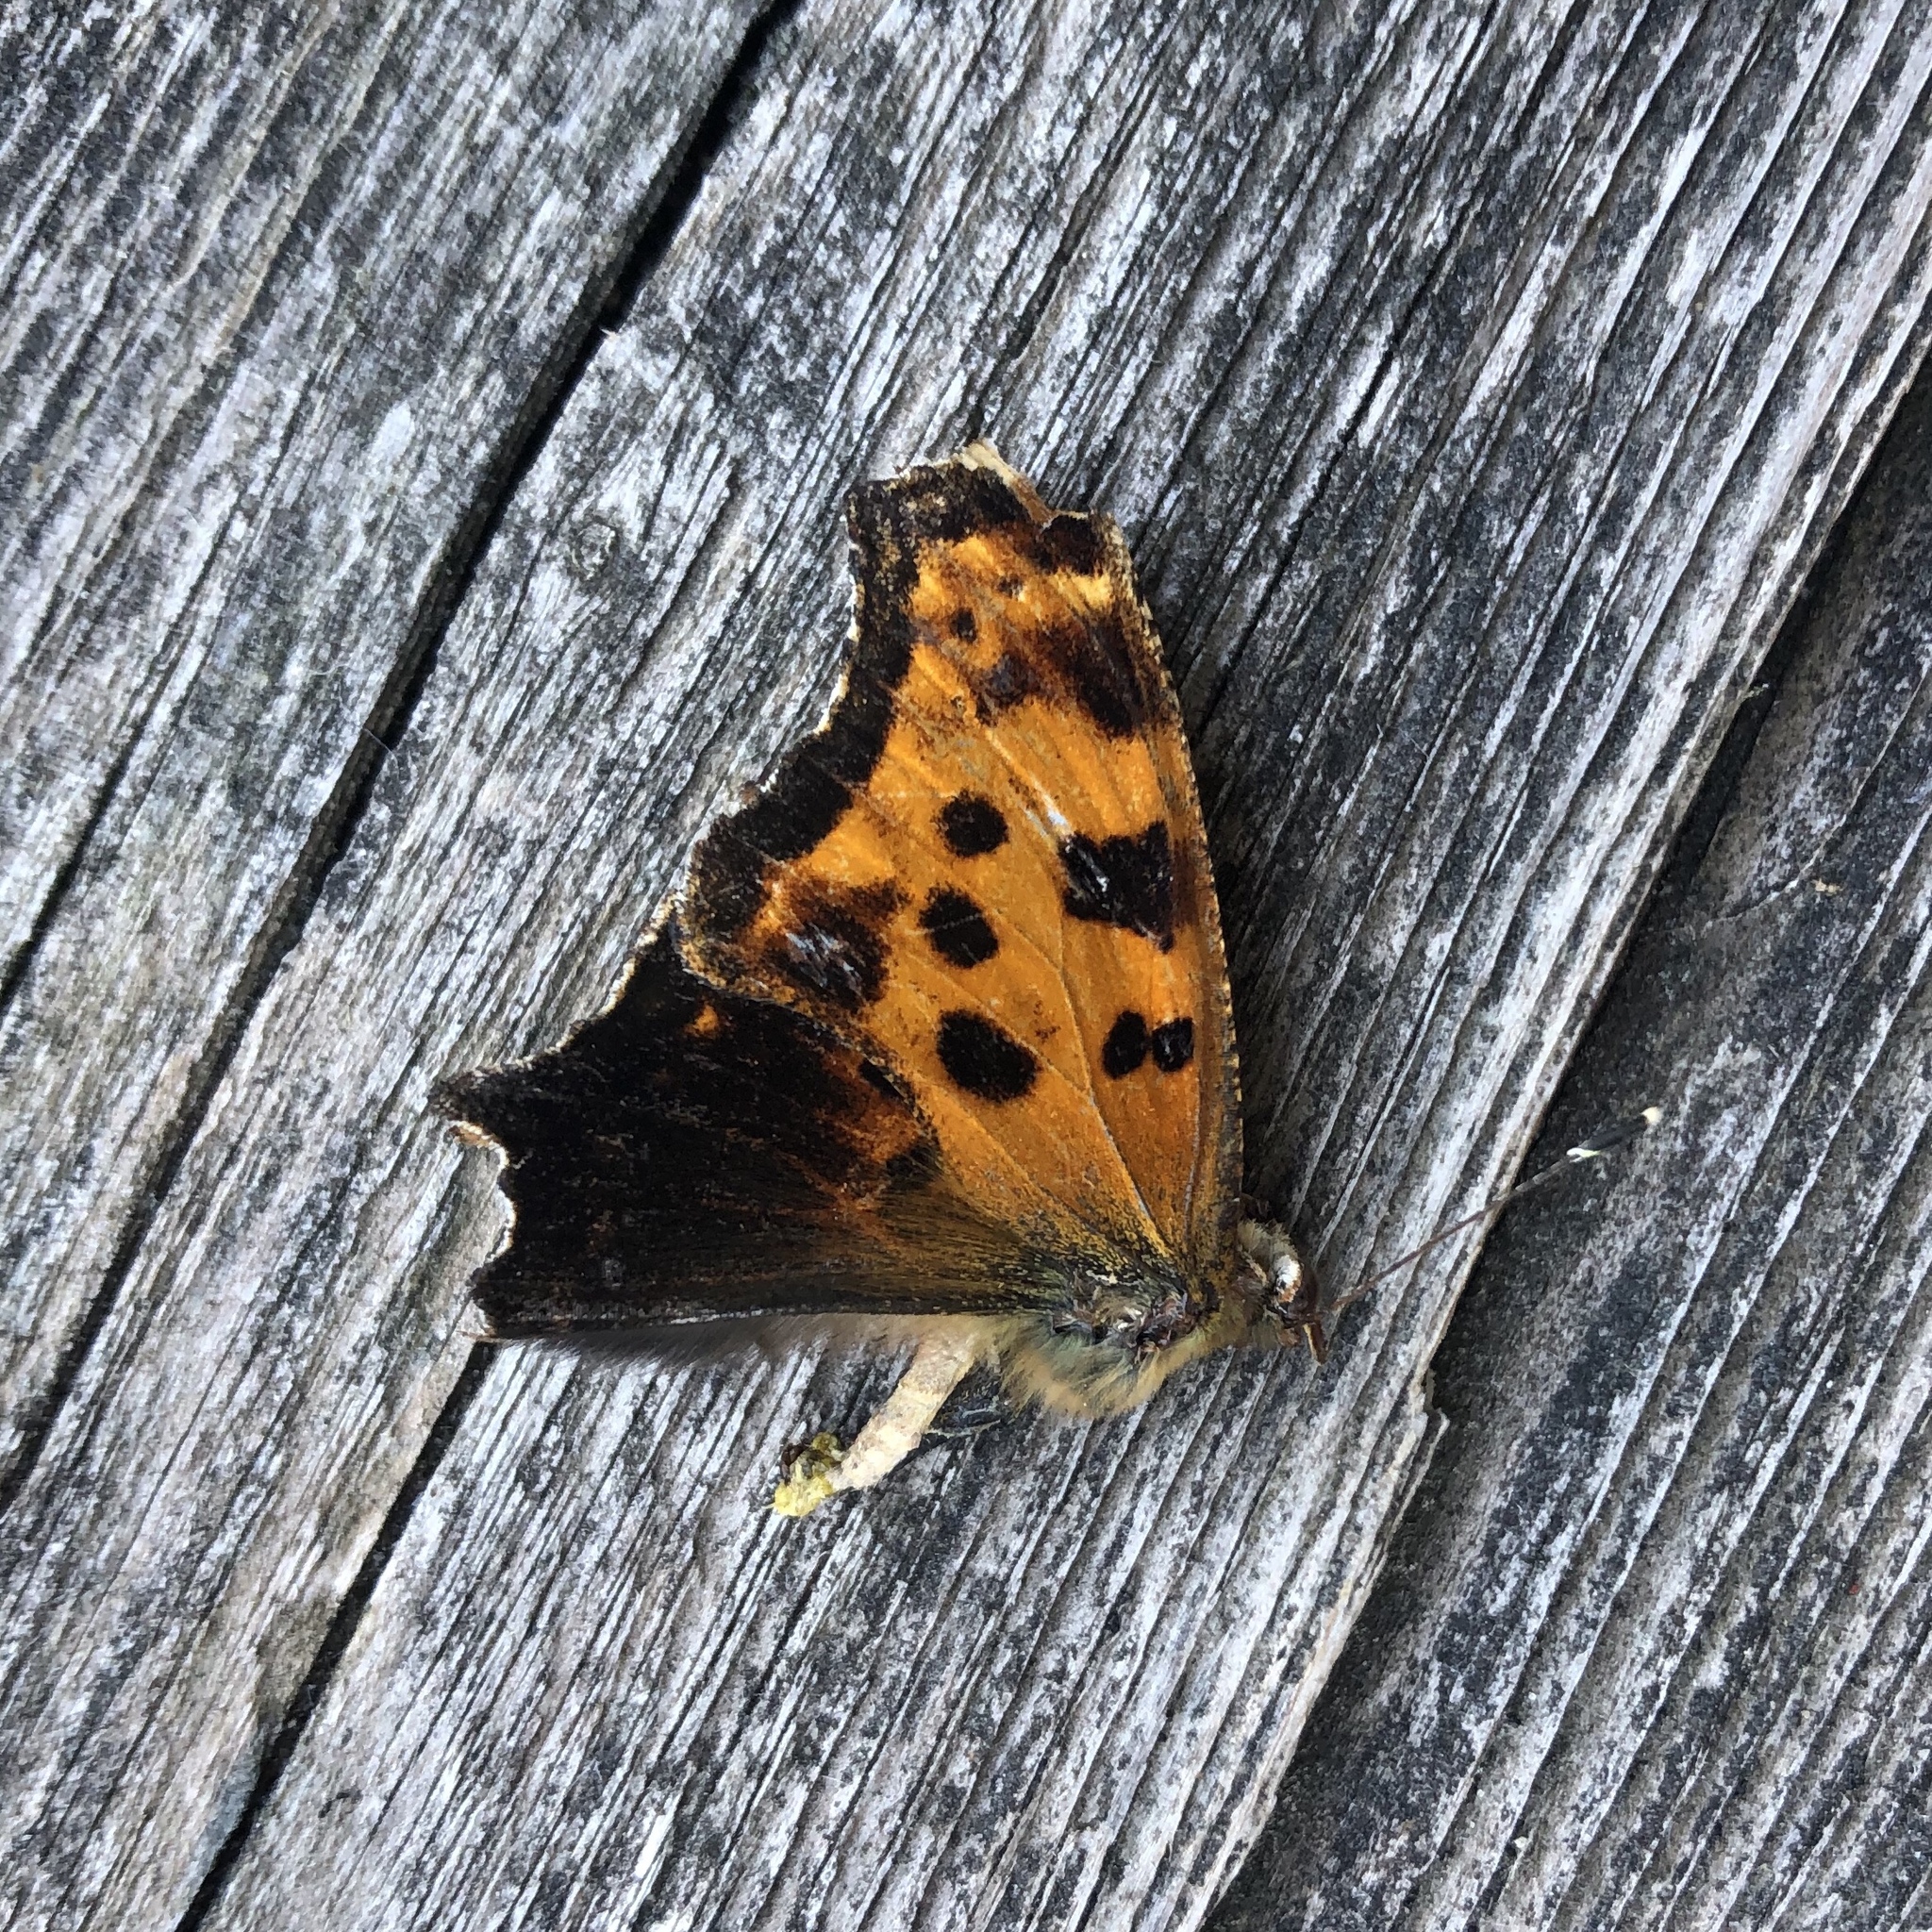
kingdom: Animalia
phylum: Arthropoda
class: Insecta
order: Lepidoptera
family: Nymphalidae
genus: Polygonia
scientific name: Polygonia comma
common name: Eastern comma
